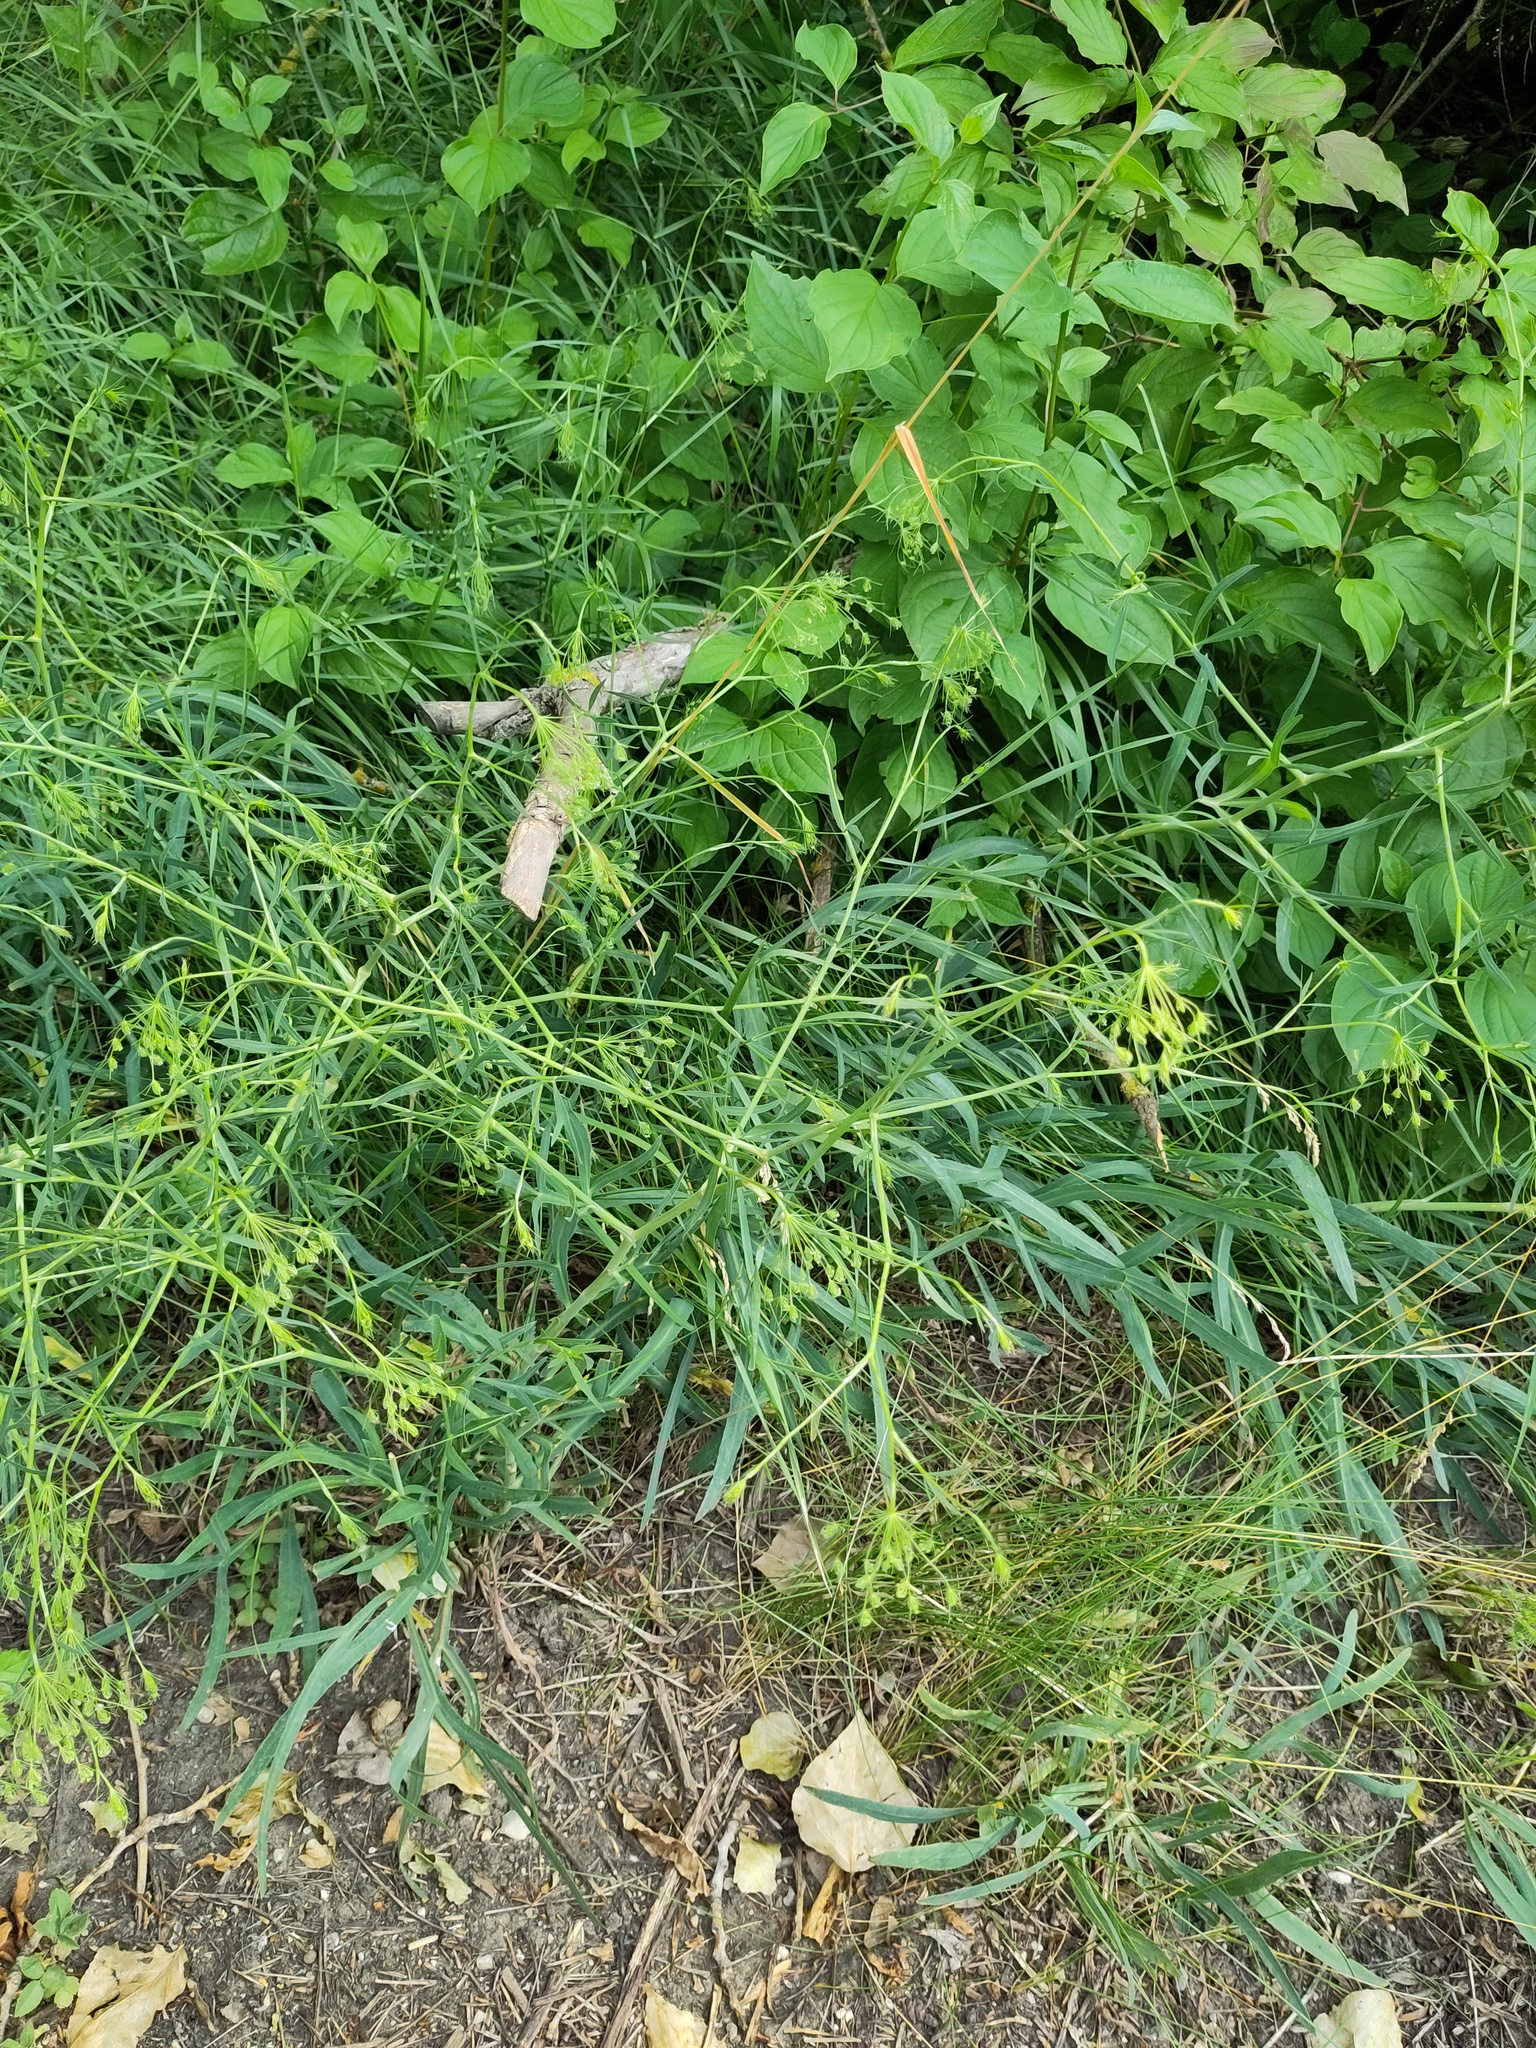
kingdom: Plantae
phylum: Tracheophyta
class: Magnoliopsida
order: Apiales
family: Apiaceae
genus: Falcaria
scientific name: Falcaria vulgaris
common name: Longleaf
